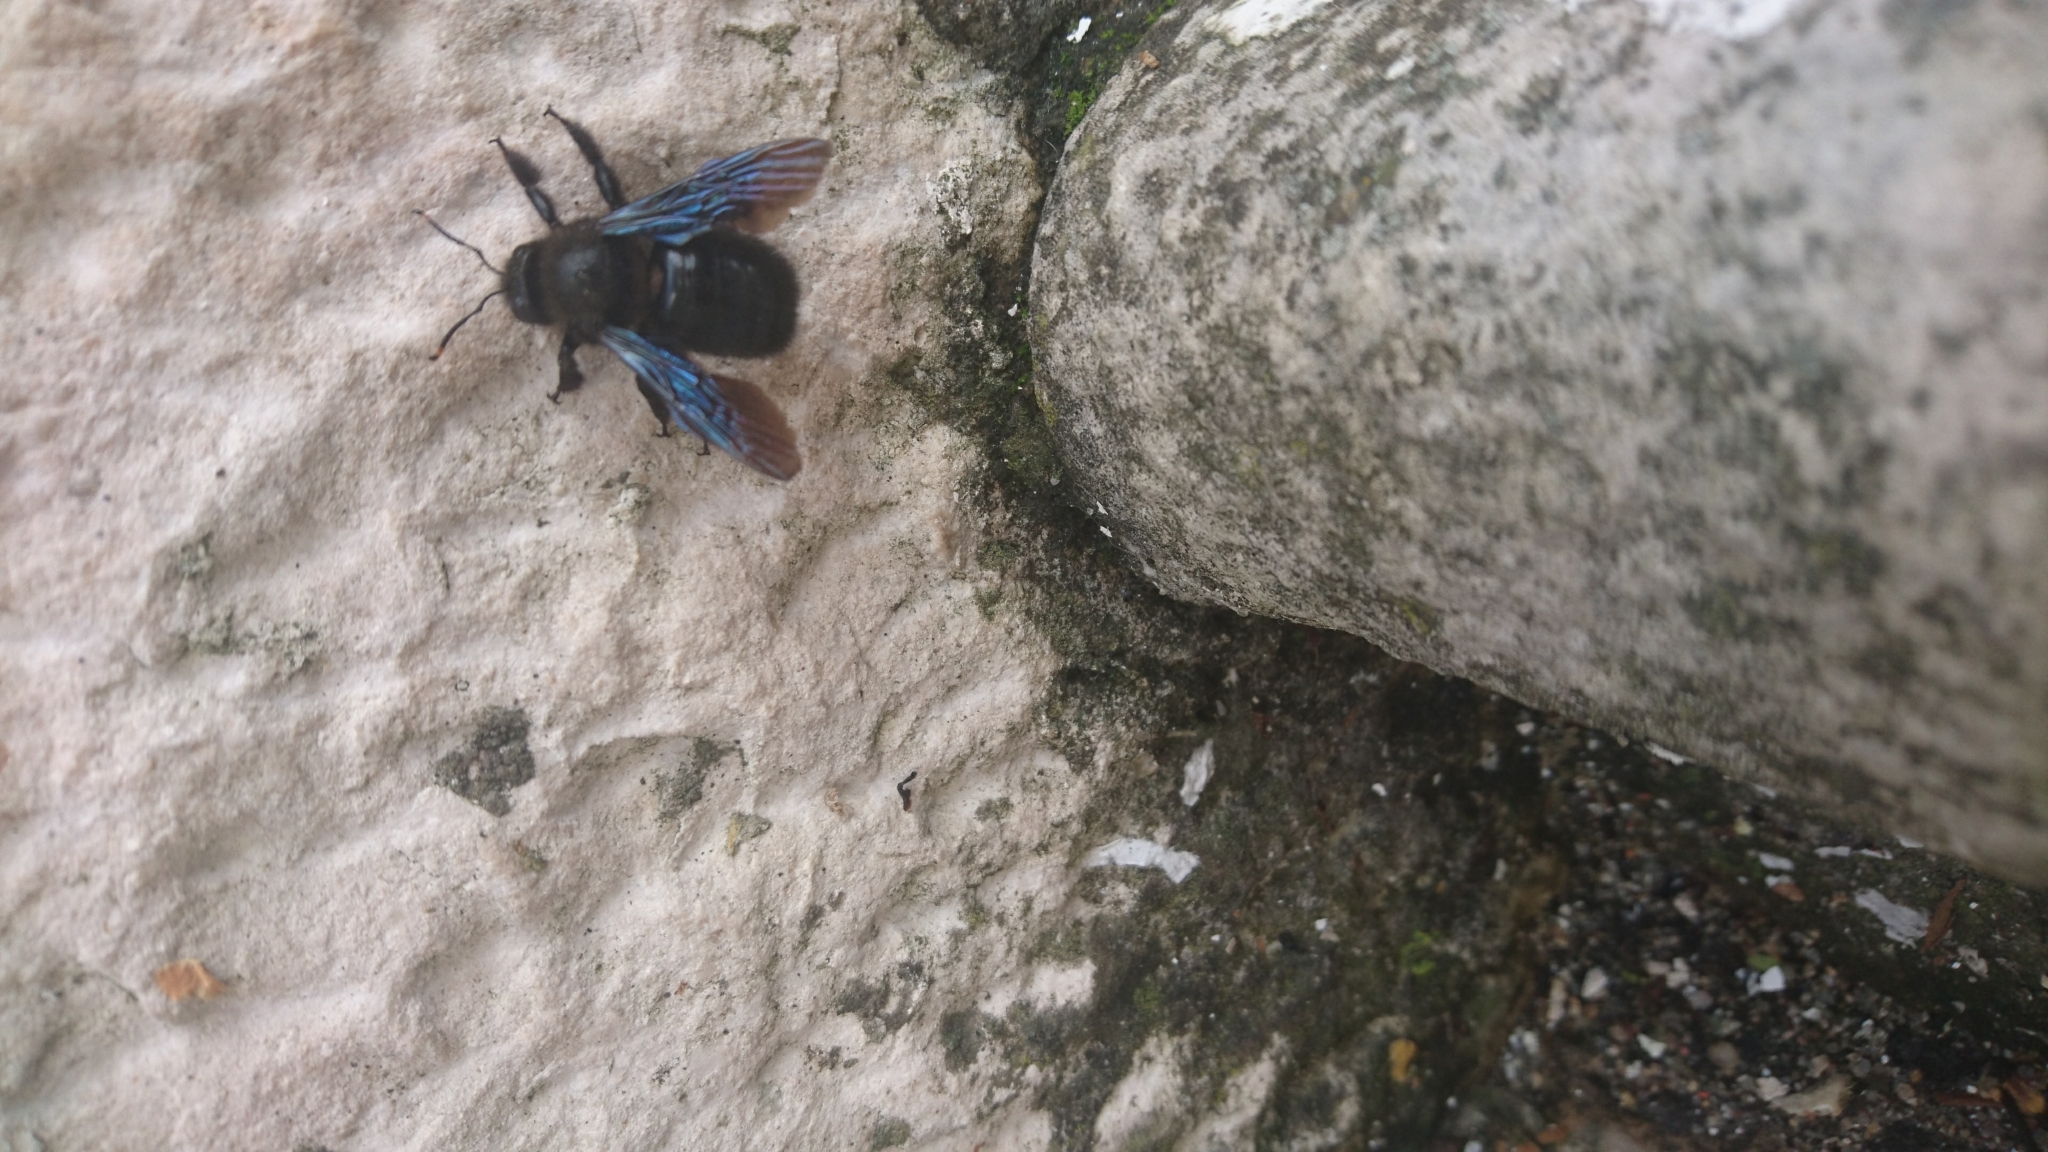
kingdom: Animalia
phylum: Arthropoda
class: Insecta
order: Hymenoptera
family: Apidae
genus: Xylocopa
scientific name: Xylocopa violacea
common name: Violet carpenter bee
